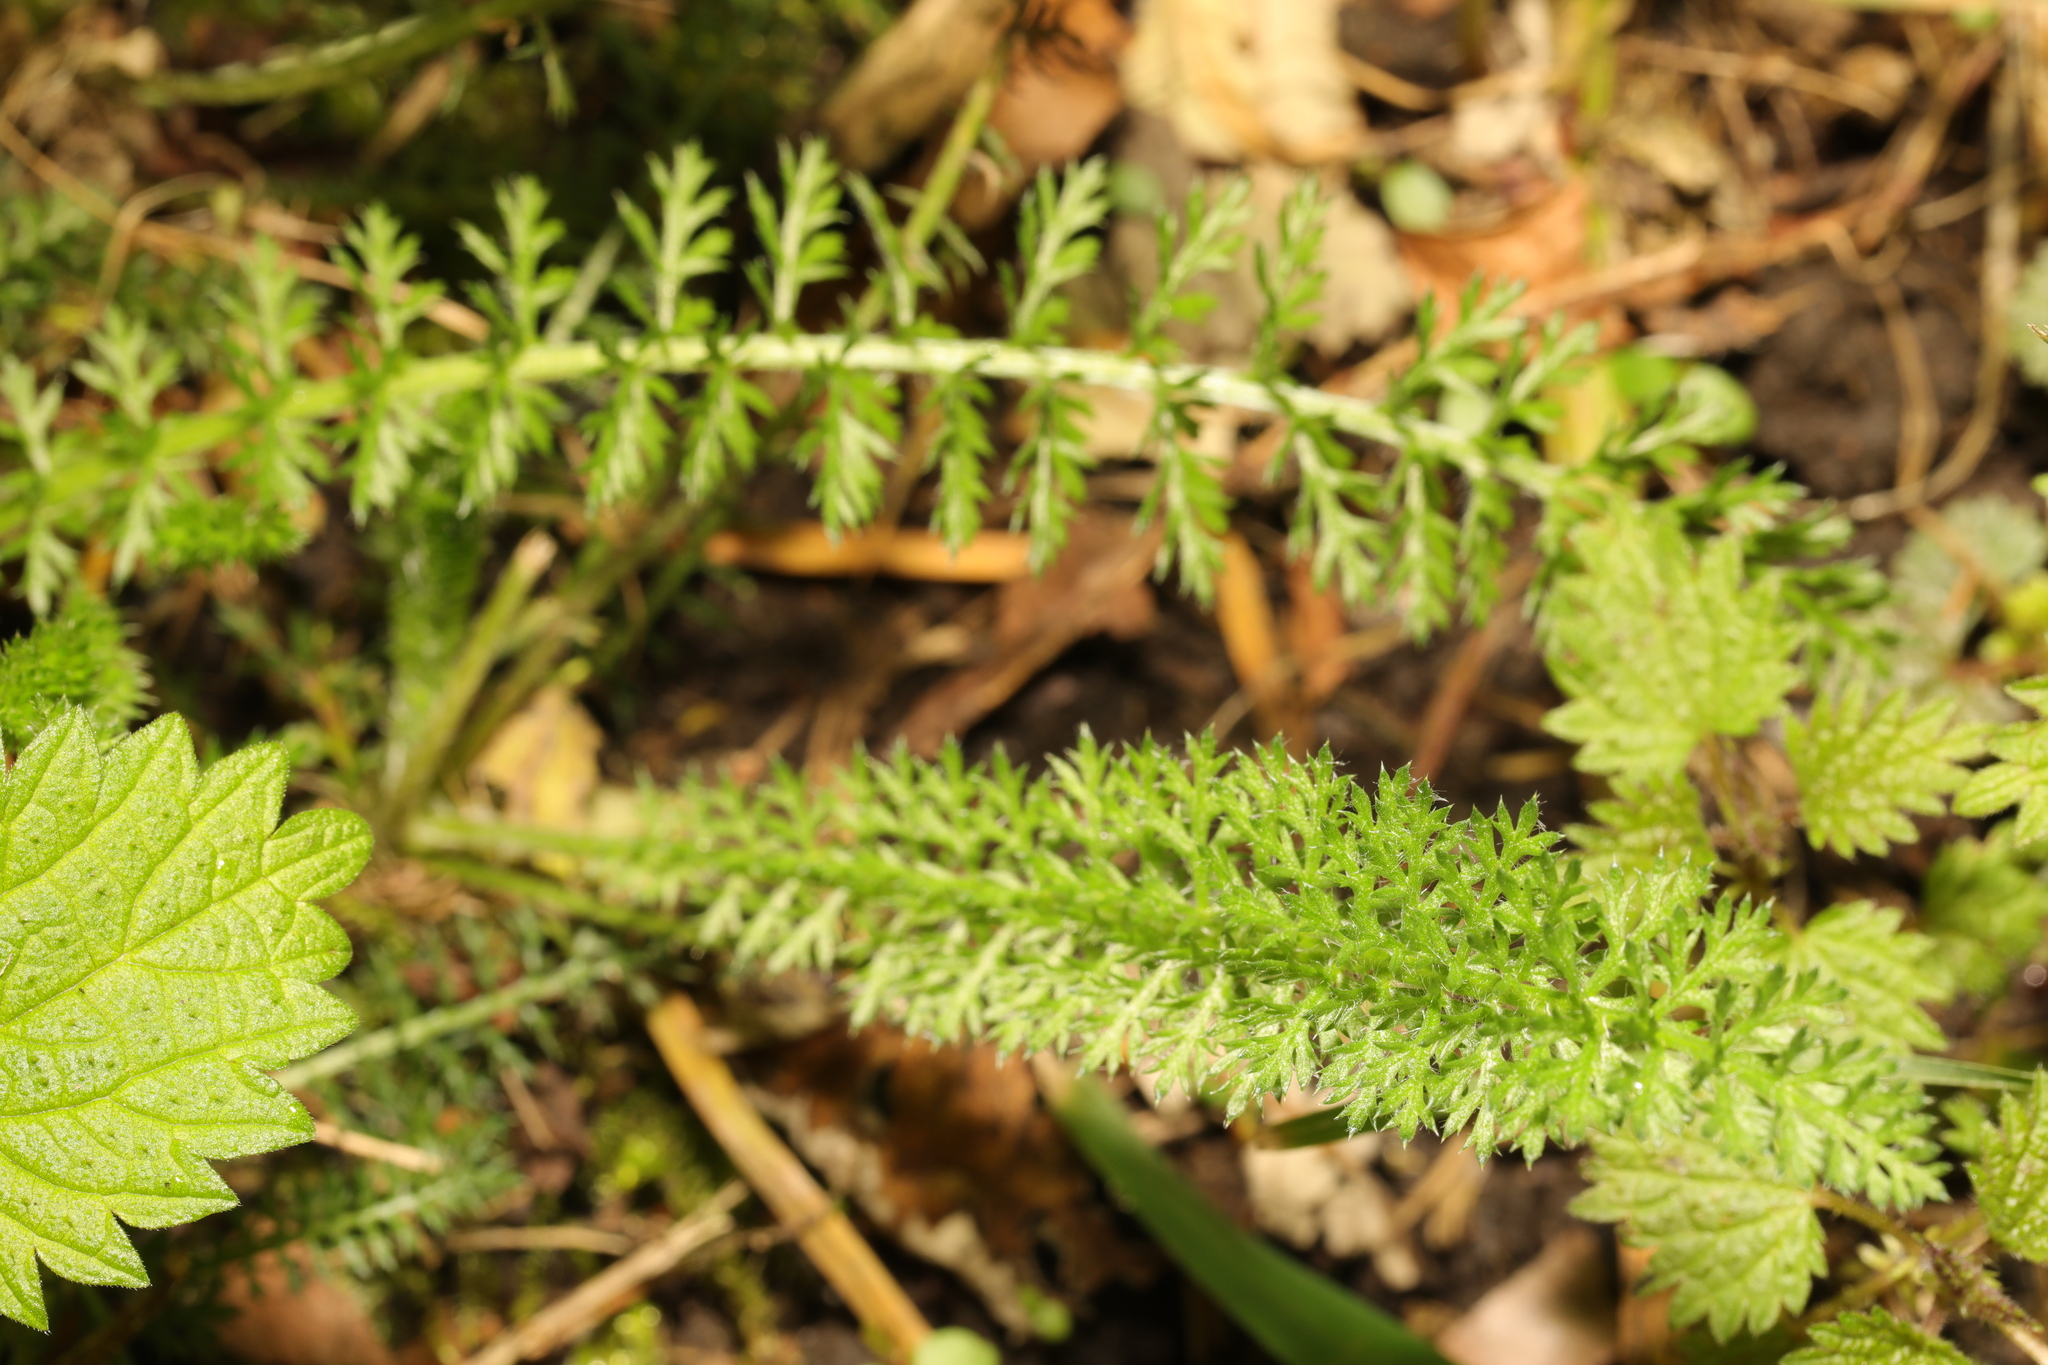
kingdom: Plantae
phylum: Tracheophyta
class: Magnoliopsida
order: Asterales
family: Asteraceae
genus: Achillea
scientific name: Achillea millefolium
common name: Yarrow
